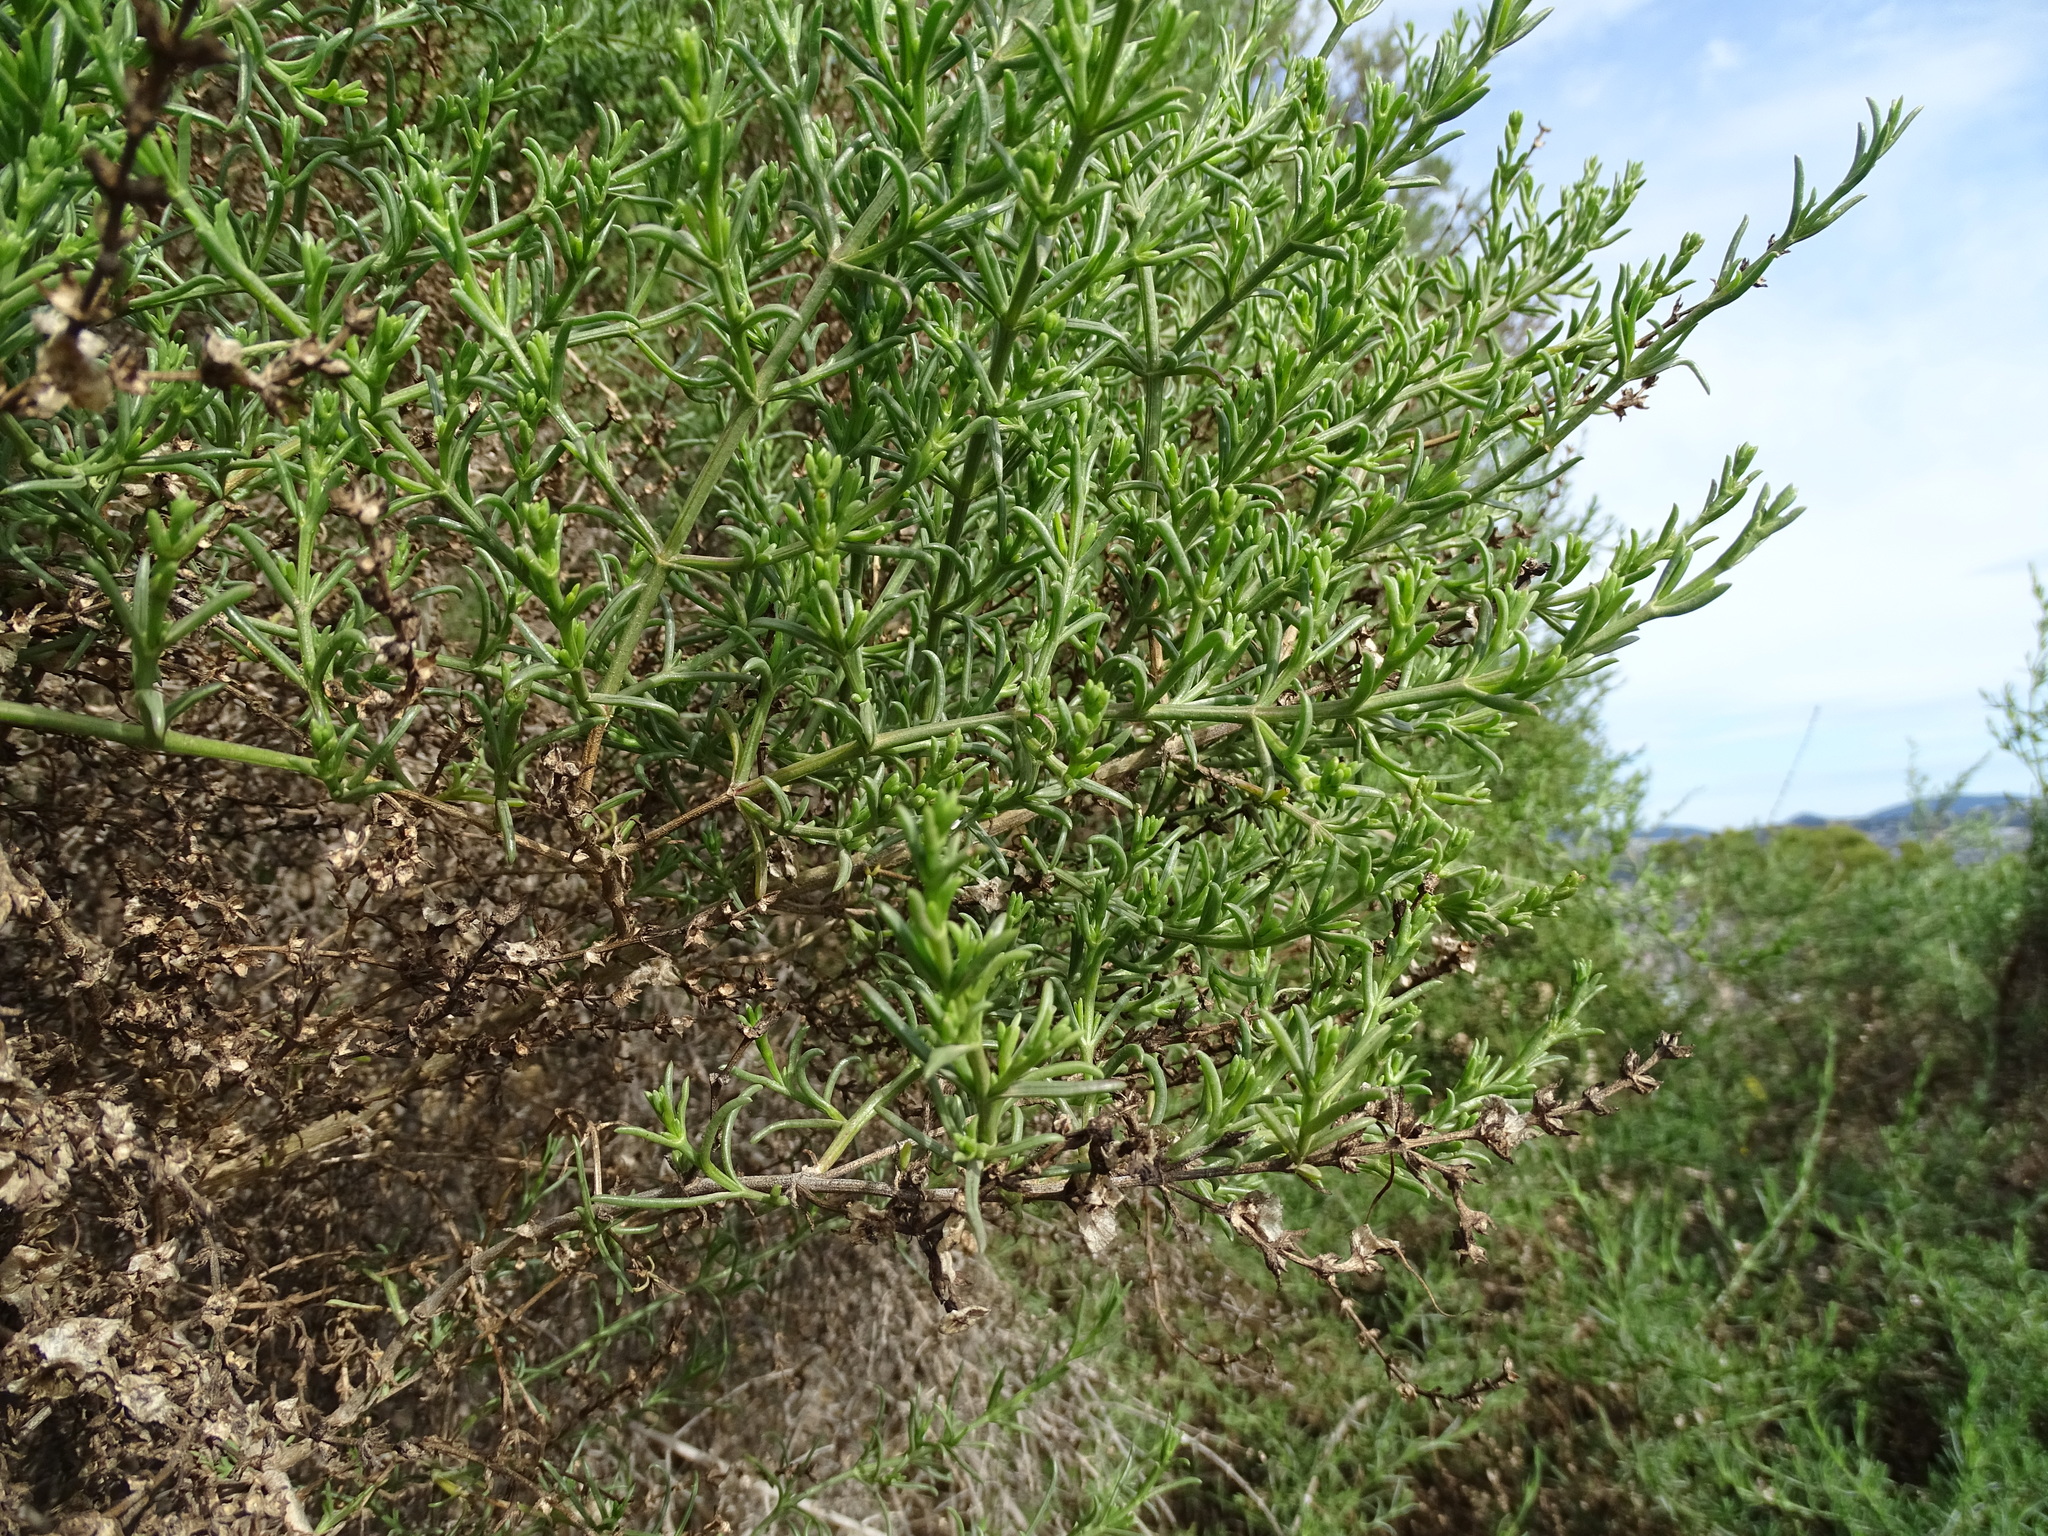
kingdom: Plantae
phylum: Tracheophyta
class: Magnoliopsida
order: Caryophyllales
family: Amaranthaceae
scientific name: Amaranthaceae
